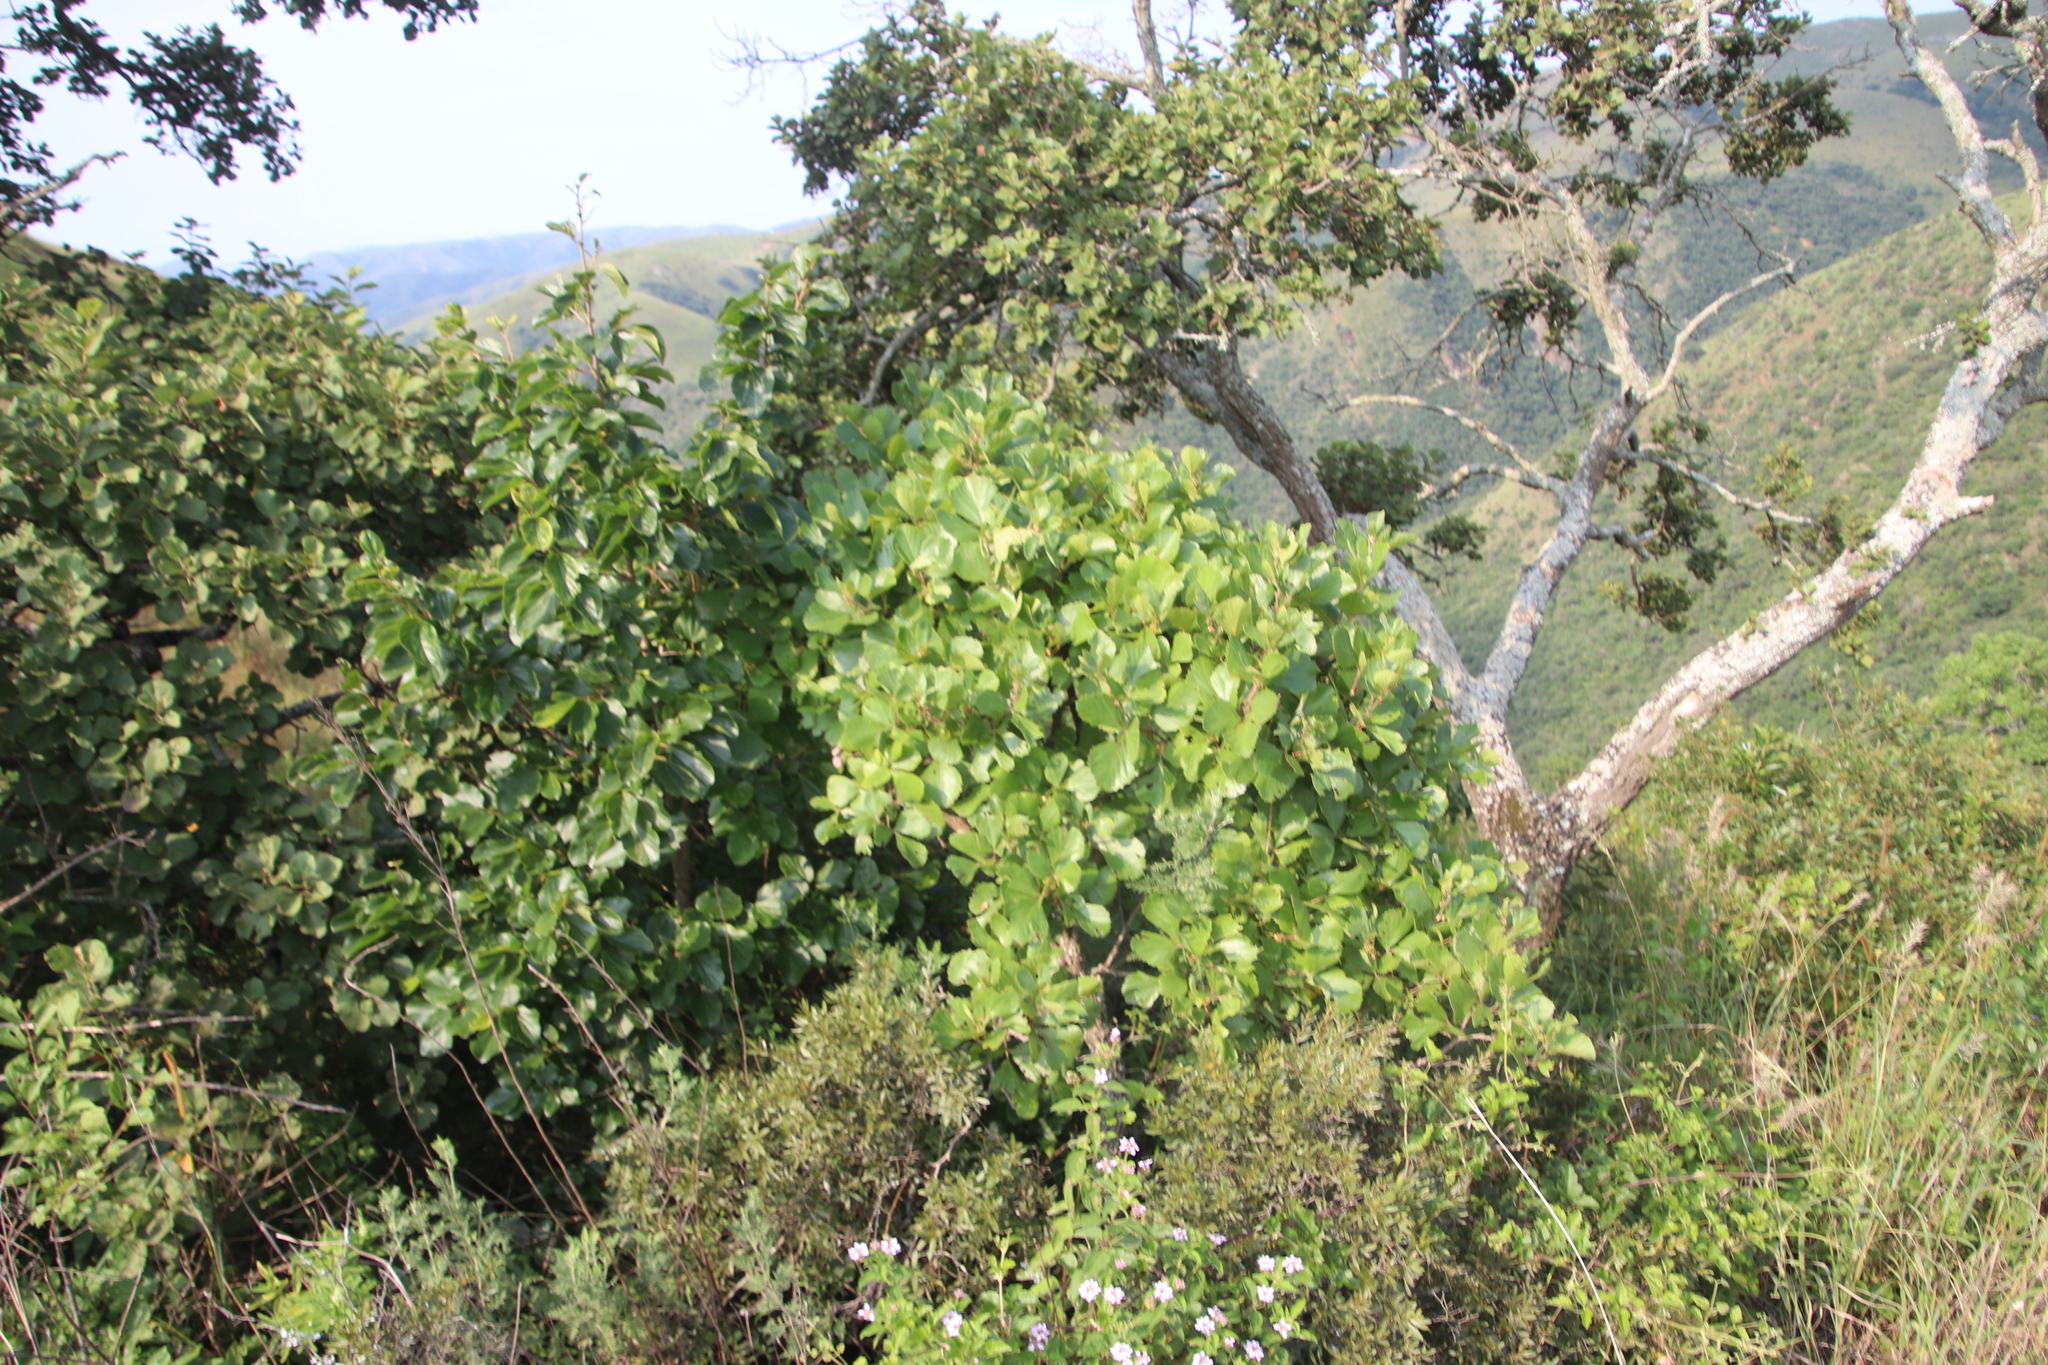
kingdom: Plantae
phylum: Tracheophyta
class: Magnoliopsida
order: Vitales
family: Vitaceae
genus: Rhoicissus
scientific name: Rhoicissus tridentata
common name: Common forest grape
